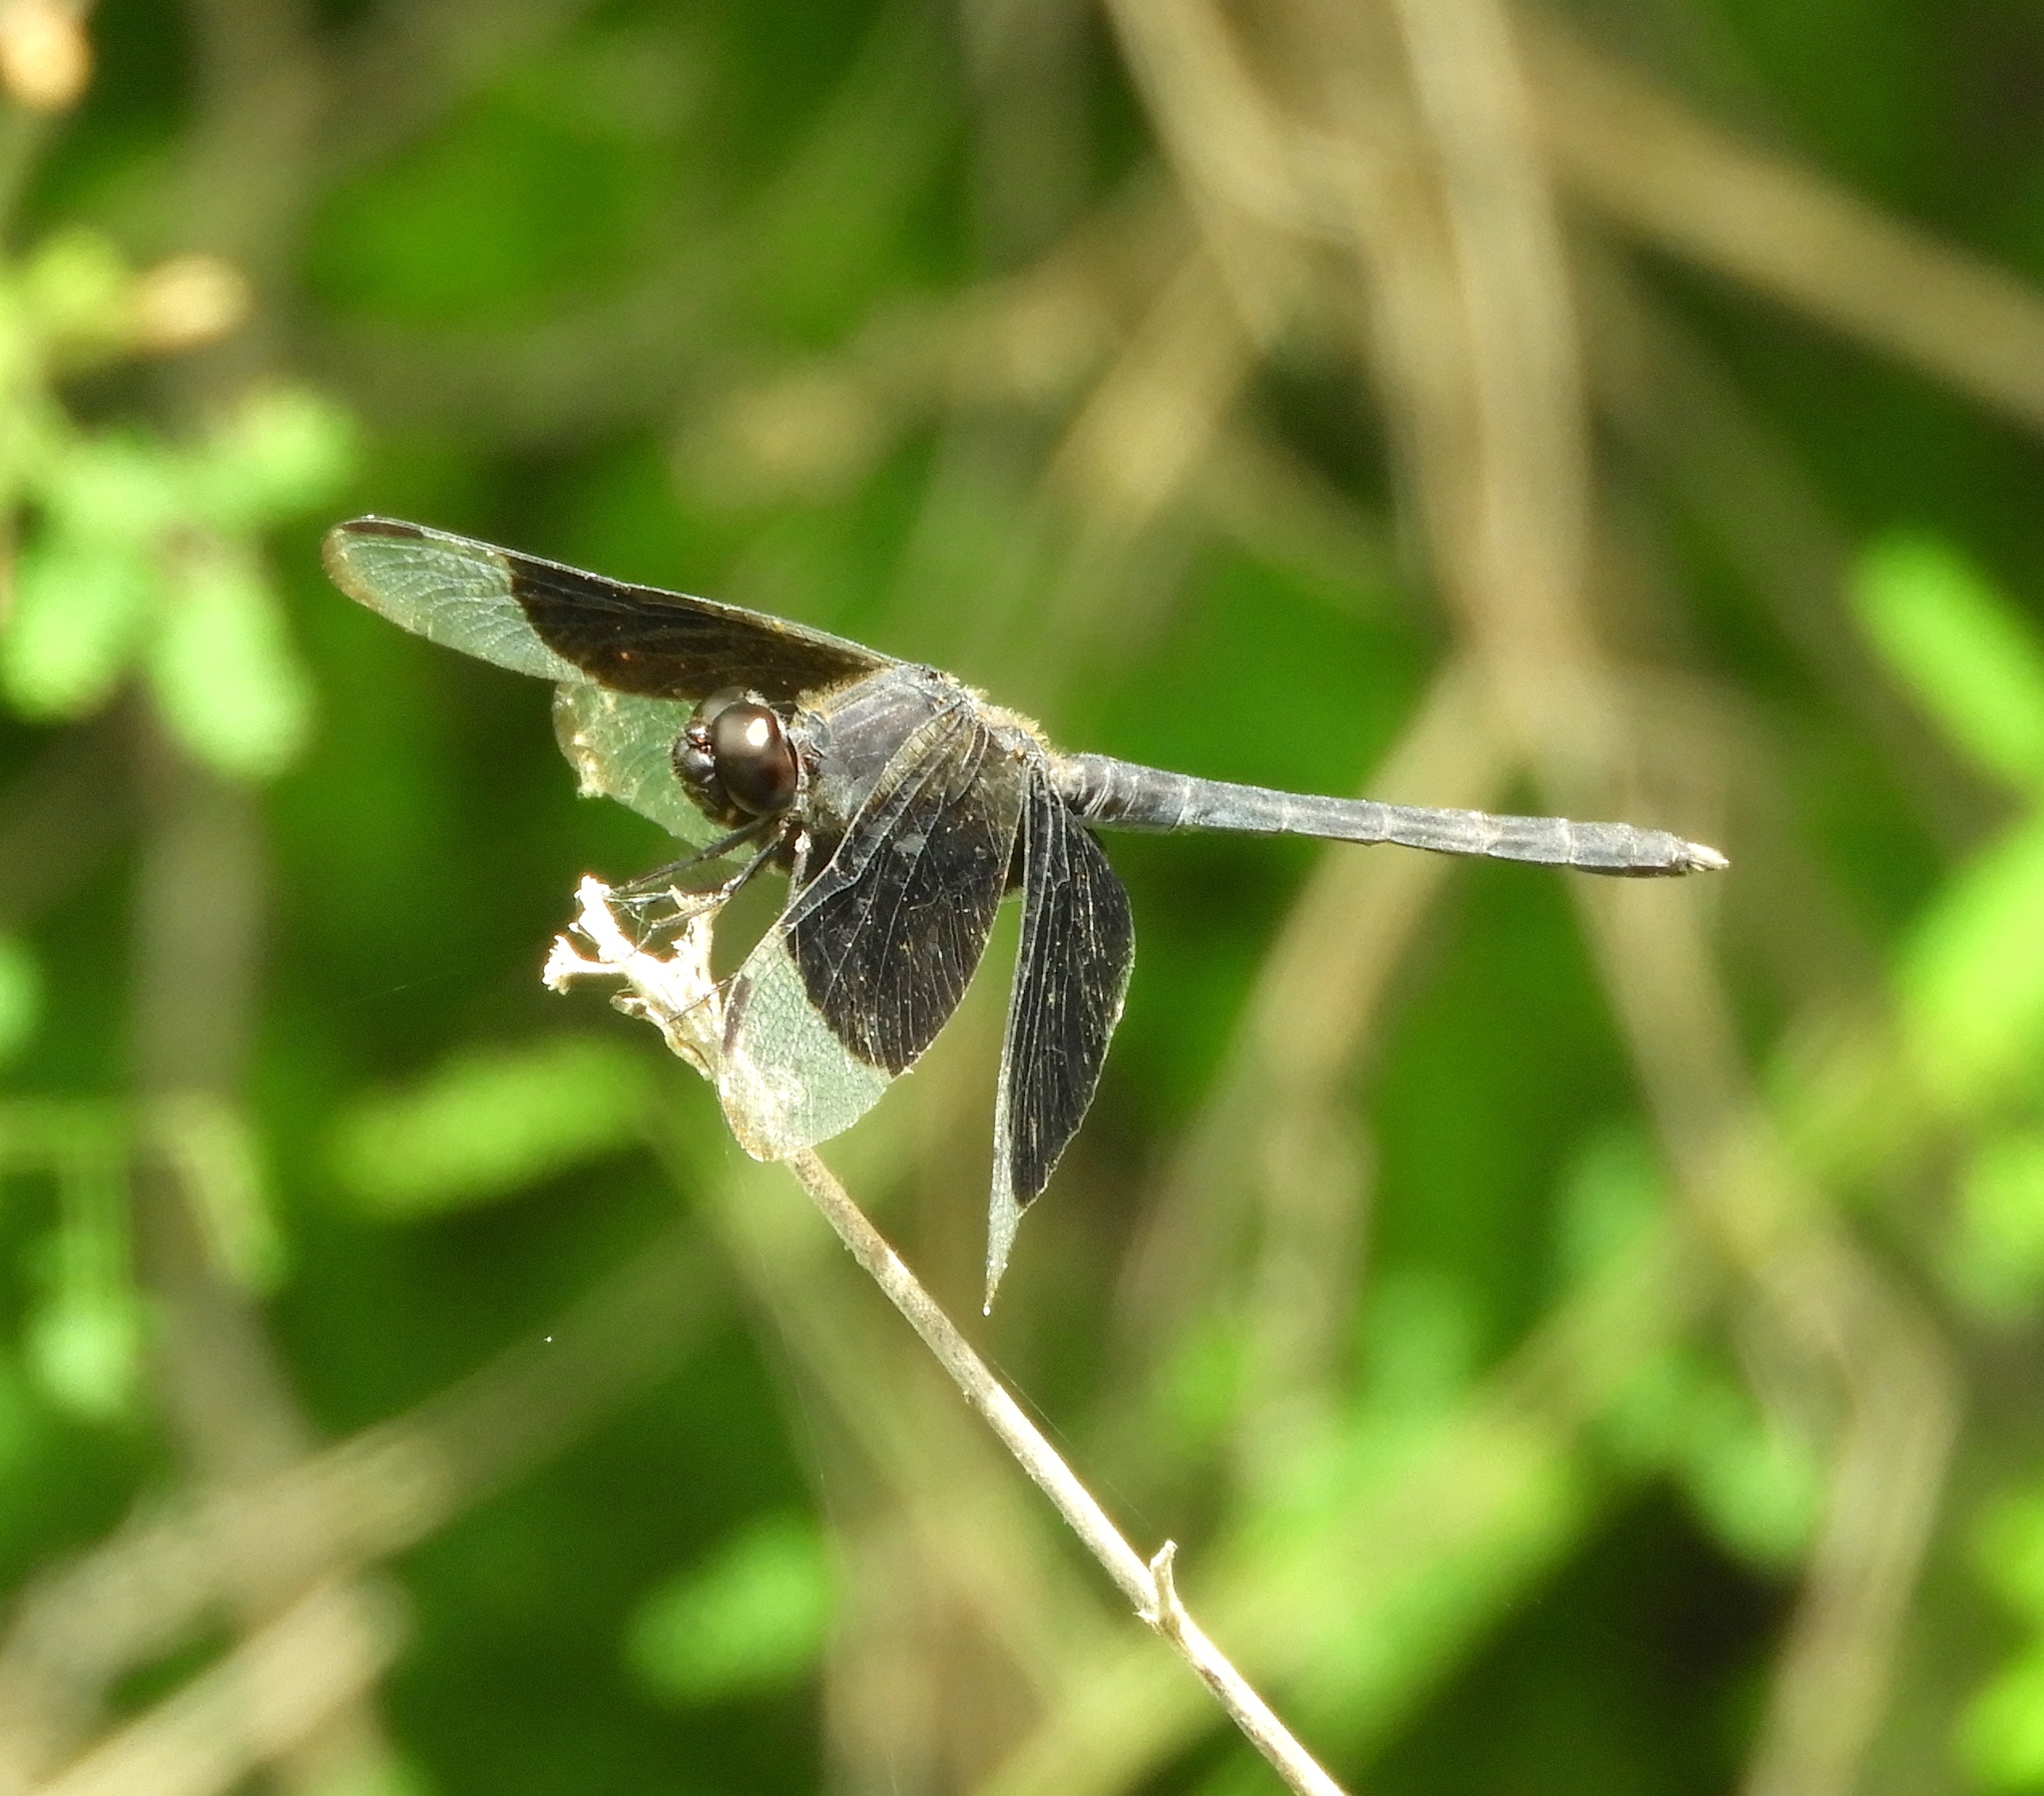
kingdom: Animalia
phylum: Arthropoda
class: Insecta
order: Odonata
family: Libellulidae
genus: Erythrodiplax
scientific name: Erythrodiplax funerea
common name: Black-winged dragonlet
